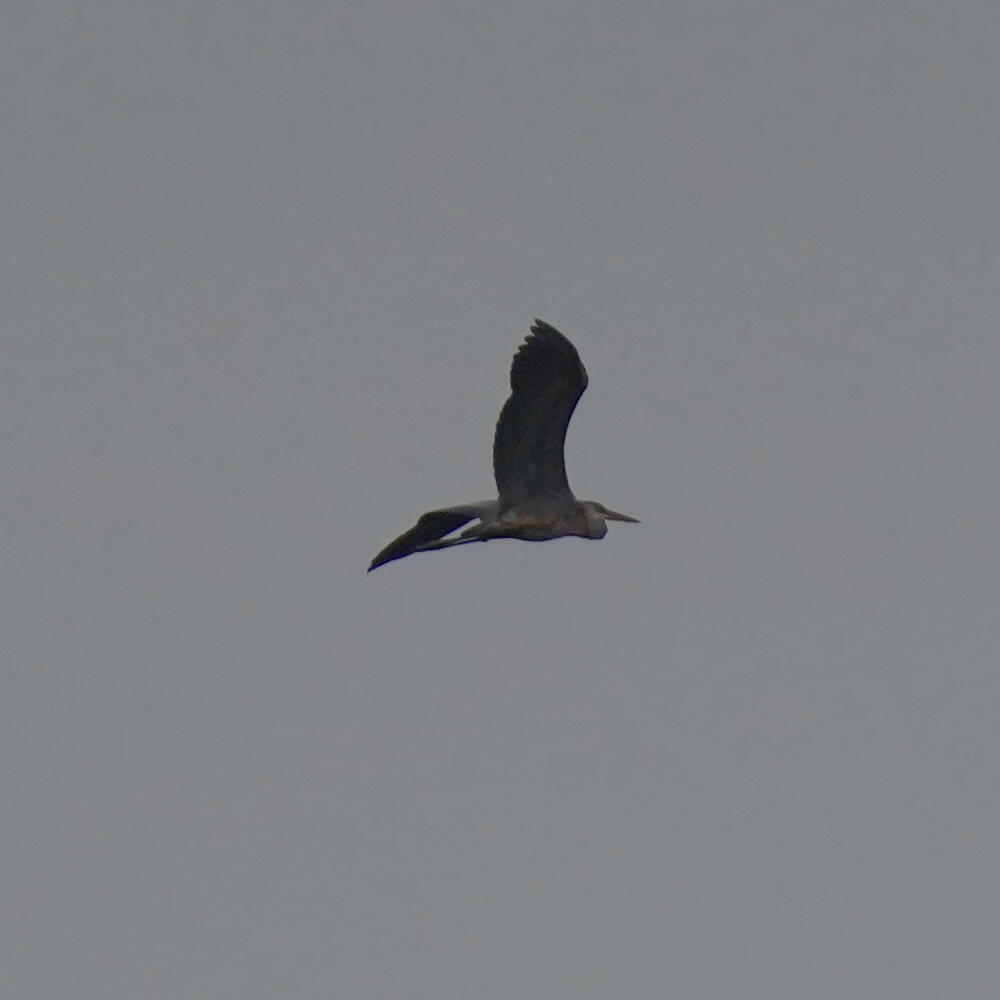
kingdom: Animalia
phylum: Chordata
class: Aves
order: Pelecaniformes
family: Ardeidae
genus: Ardea
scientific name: Ardea herodias
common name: Great blue heron
